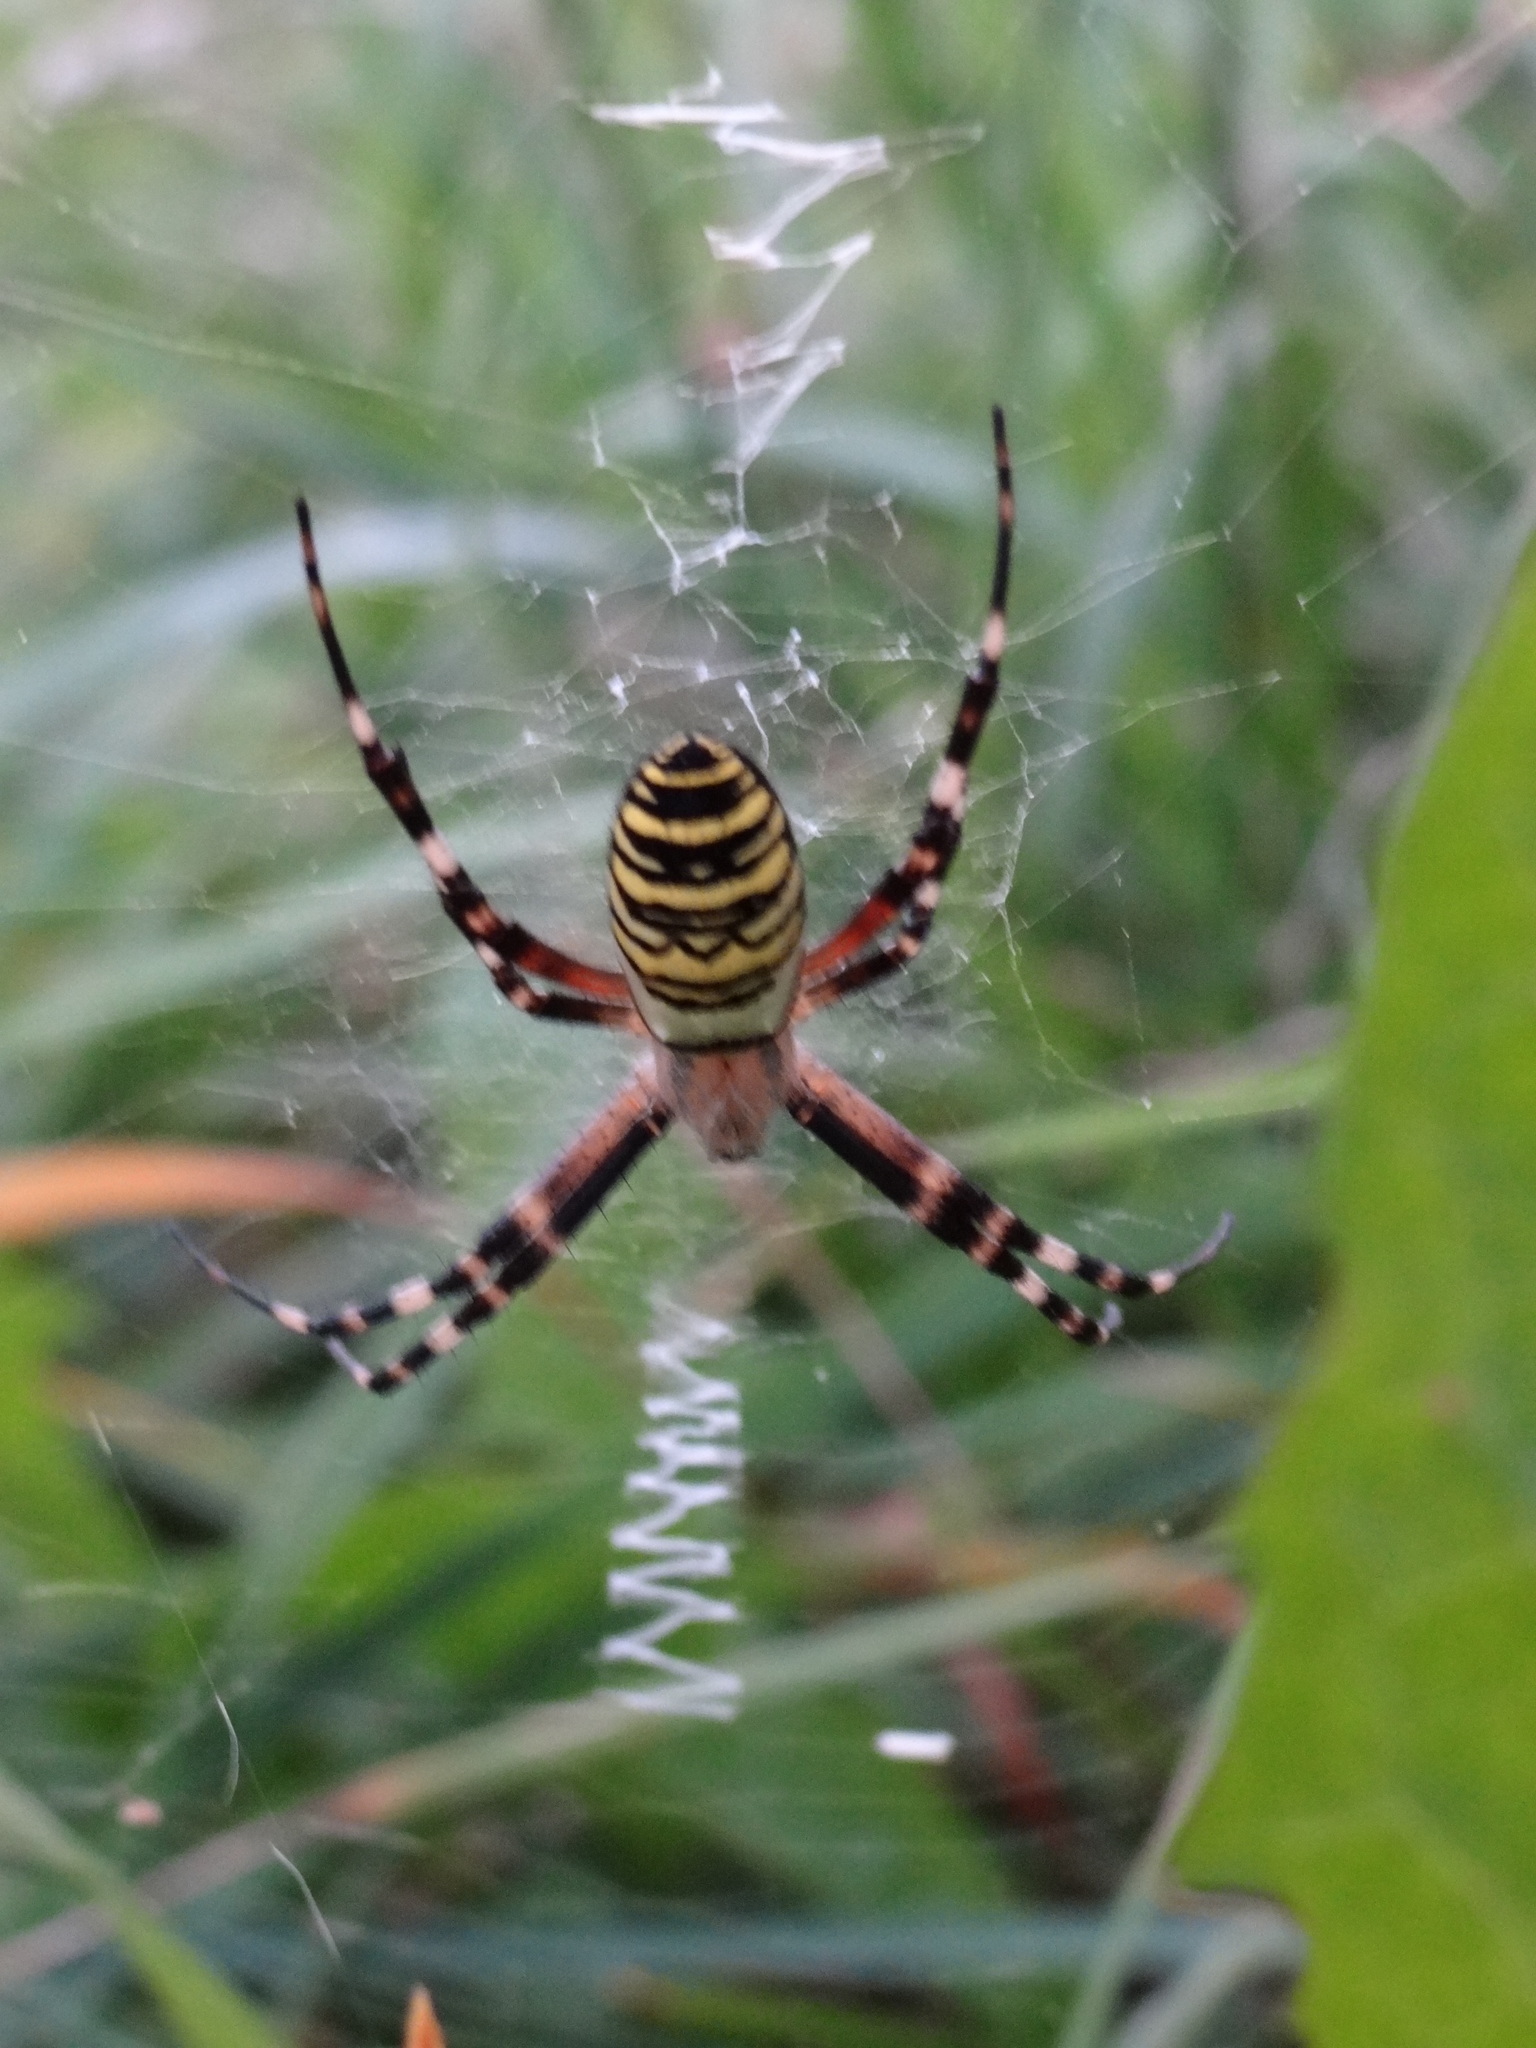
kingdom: Animalia
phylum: Arthropoda
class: Arachnida
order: Araneae
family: Araneidae
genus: Argiope
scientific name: Argiope bruennichi
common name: Wasp spider
